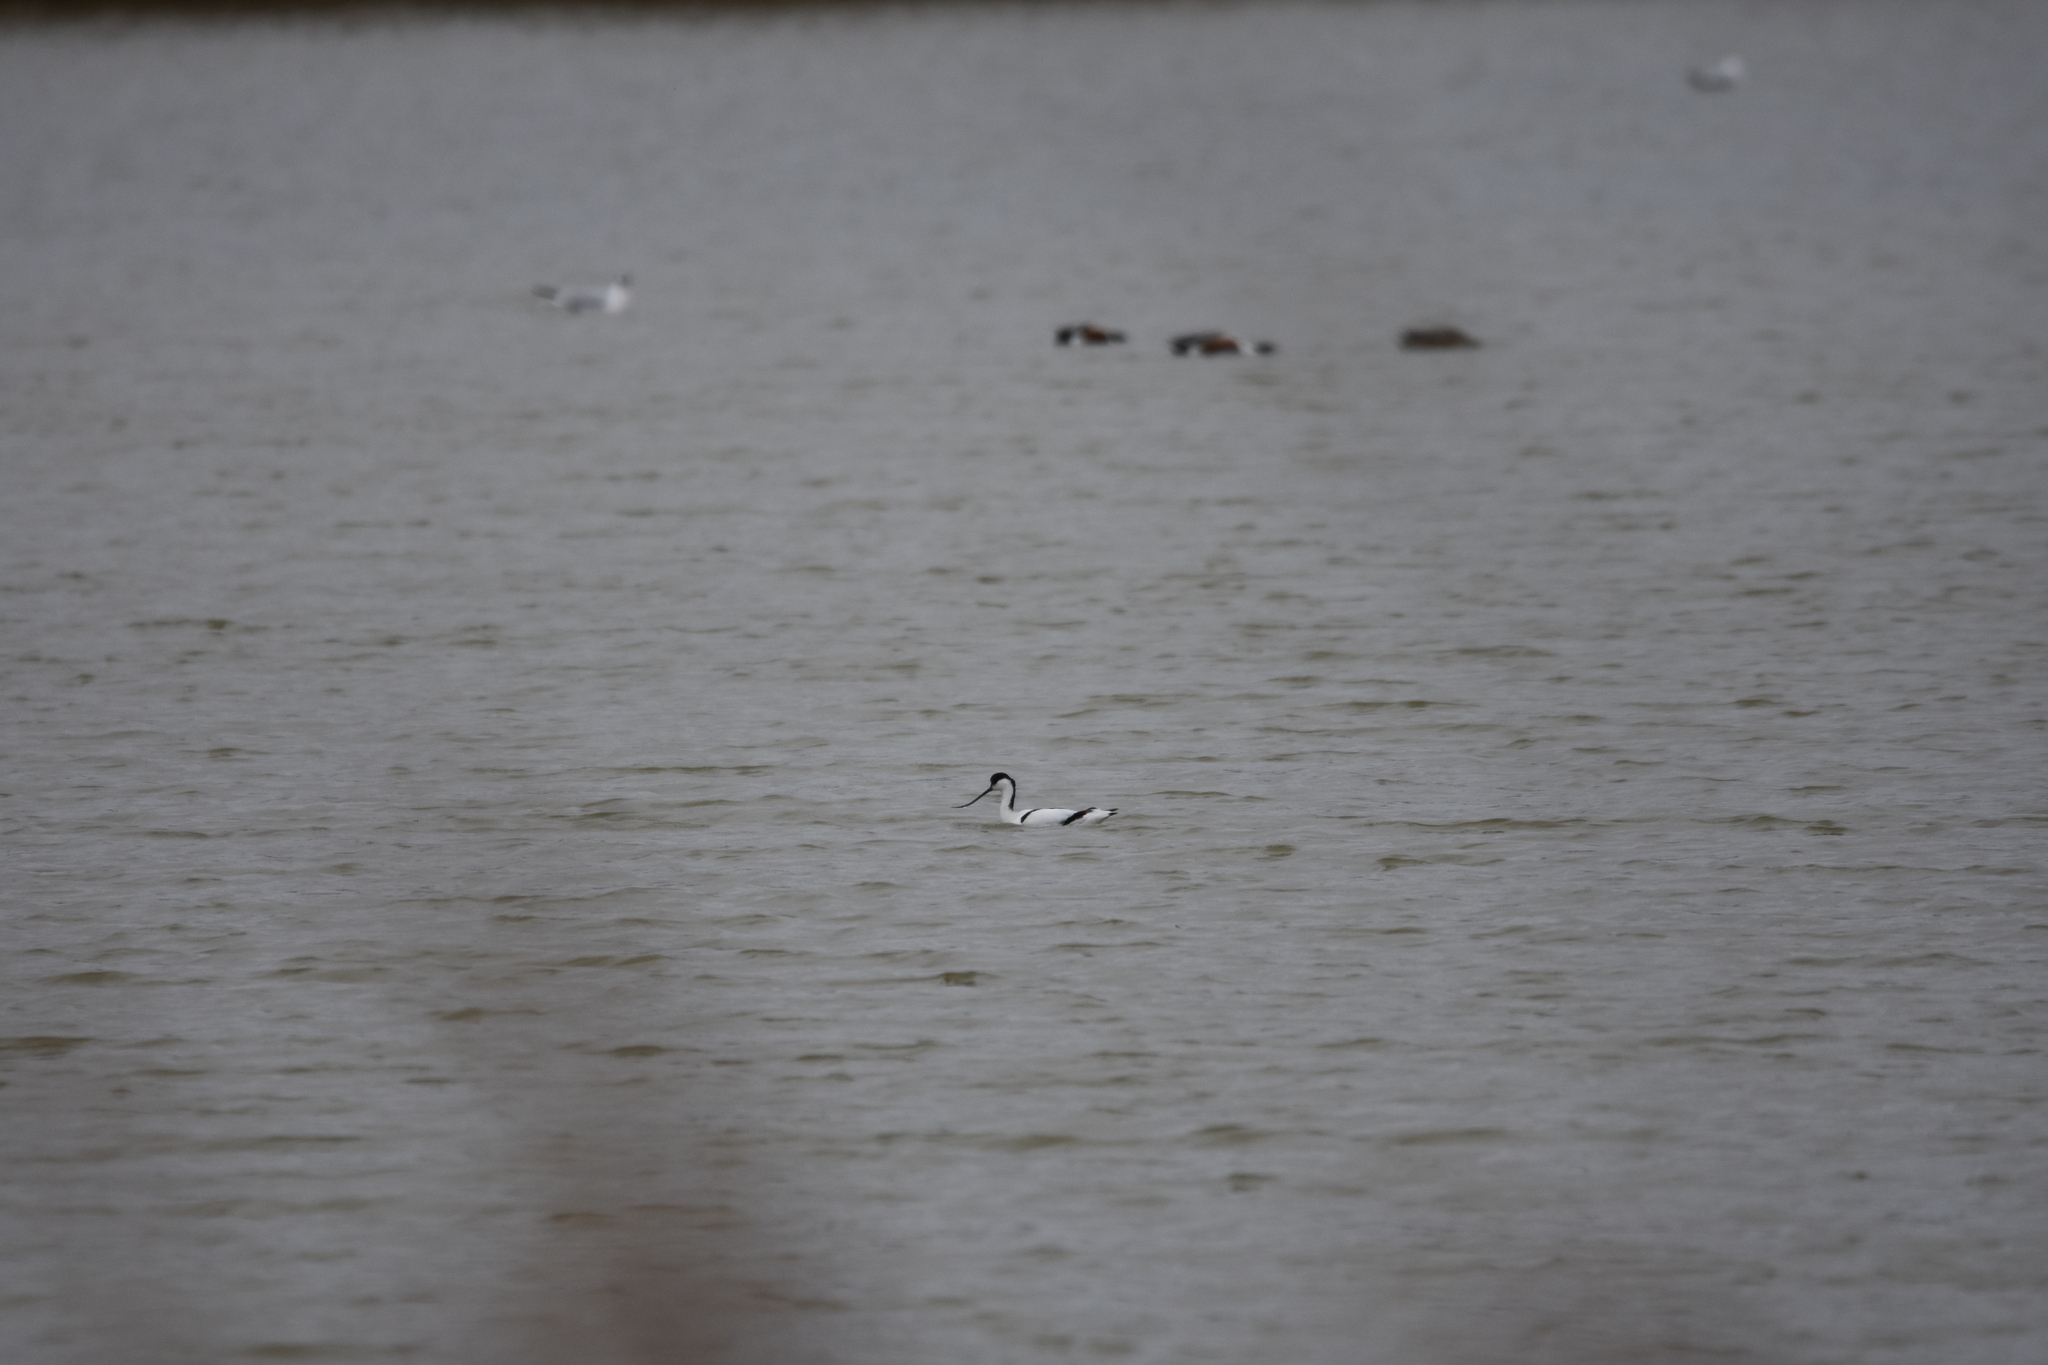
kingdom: Animalia
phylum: Chordata
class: Aves
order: Charadriiformes
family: Recurvirostridae
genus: Recurvirostra
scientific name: Recurvirostra avosetta
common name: Pied avocet
